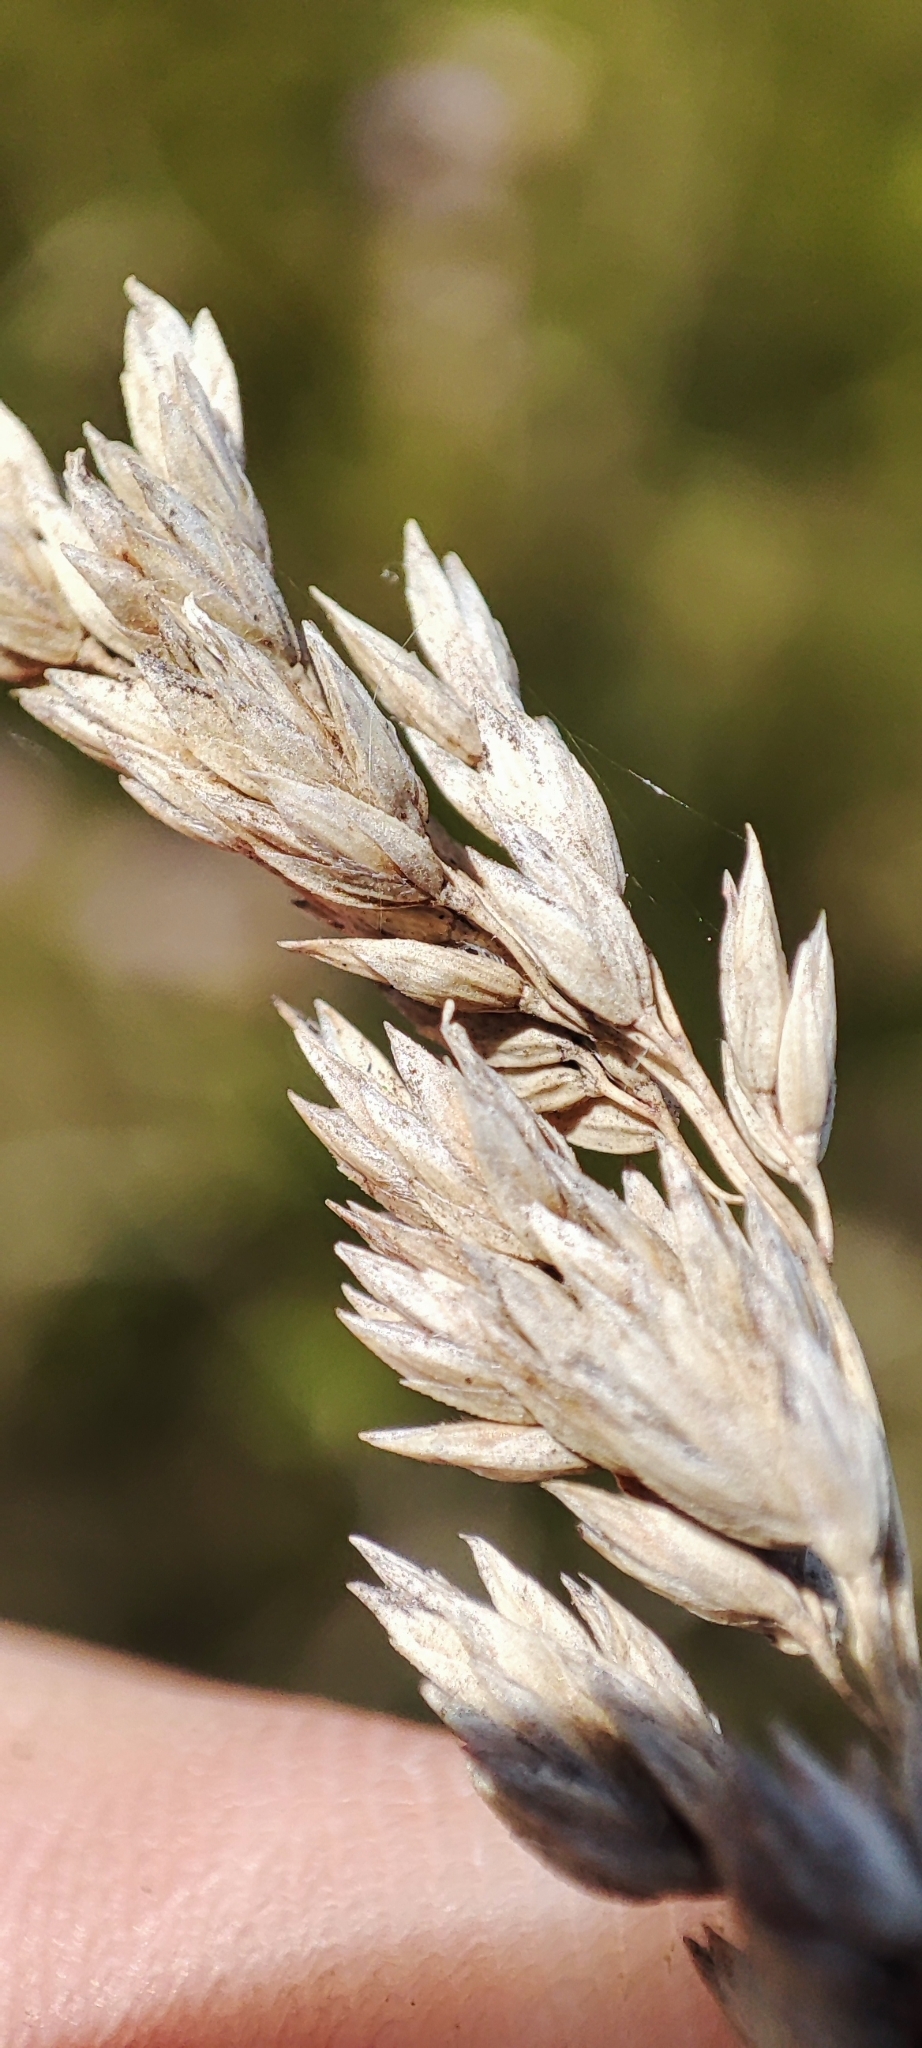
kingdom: Plantae
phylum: Tracheophyta
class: Liliopsida
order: Poales
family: Poaceae
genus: Poa
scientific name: Poa pratensis
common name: Kentucky bluegrass
